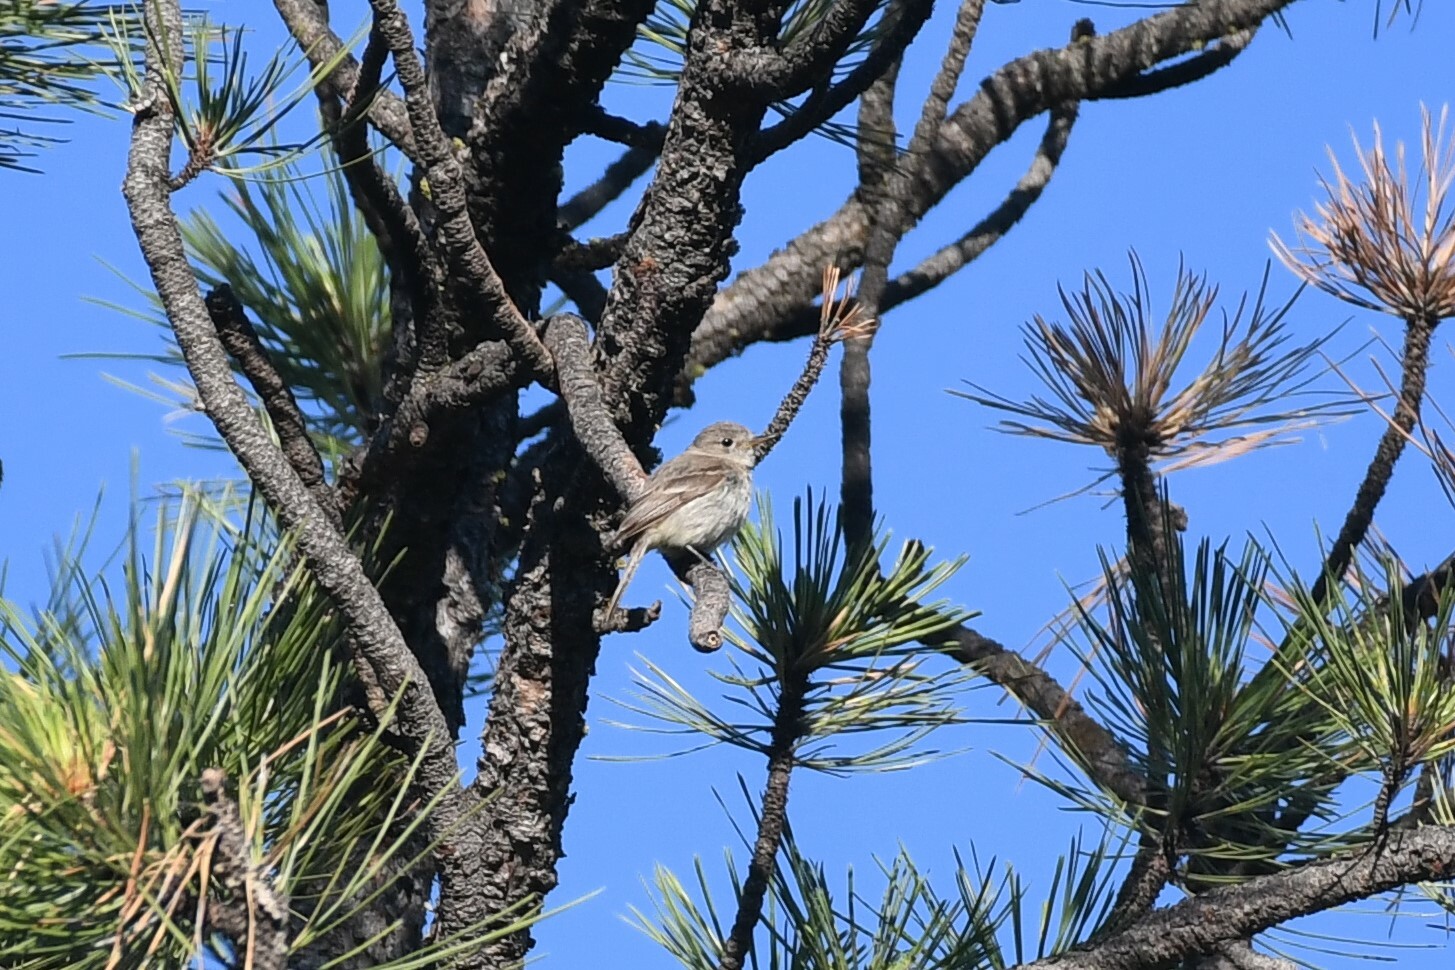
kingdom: Animalia
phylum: Chordata
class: Aves
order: Passeriformes
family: Tyrannidae
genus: Empidonax
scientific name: Empidonax wrightii
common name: Gray flycatcher
